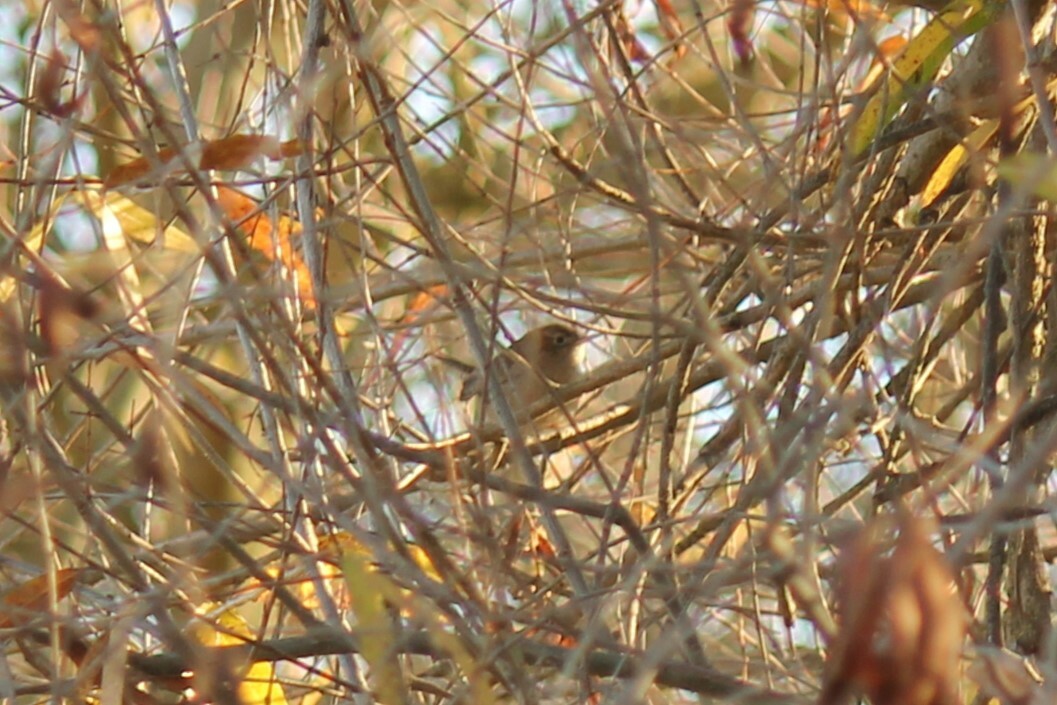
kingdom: Animalia
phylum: Chordata
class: Aves
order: Passeriformes
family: Troglodytidae
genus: Troglodytes
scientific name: Troglodytes aedon
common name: House wren
